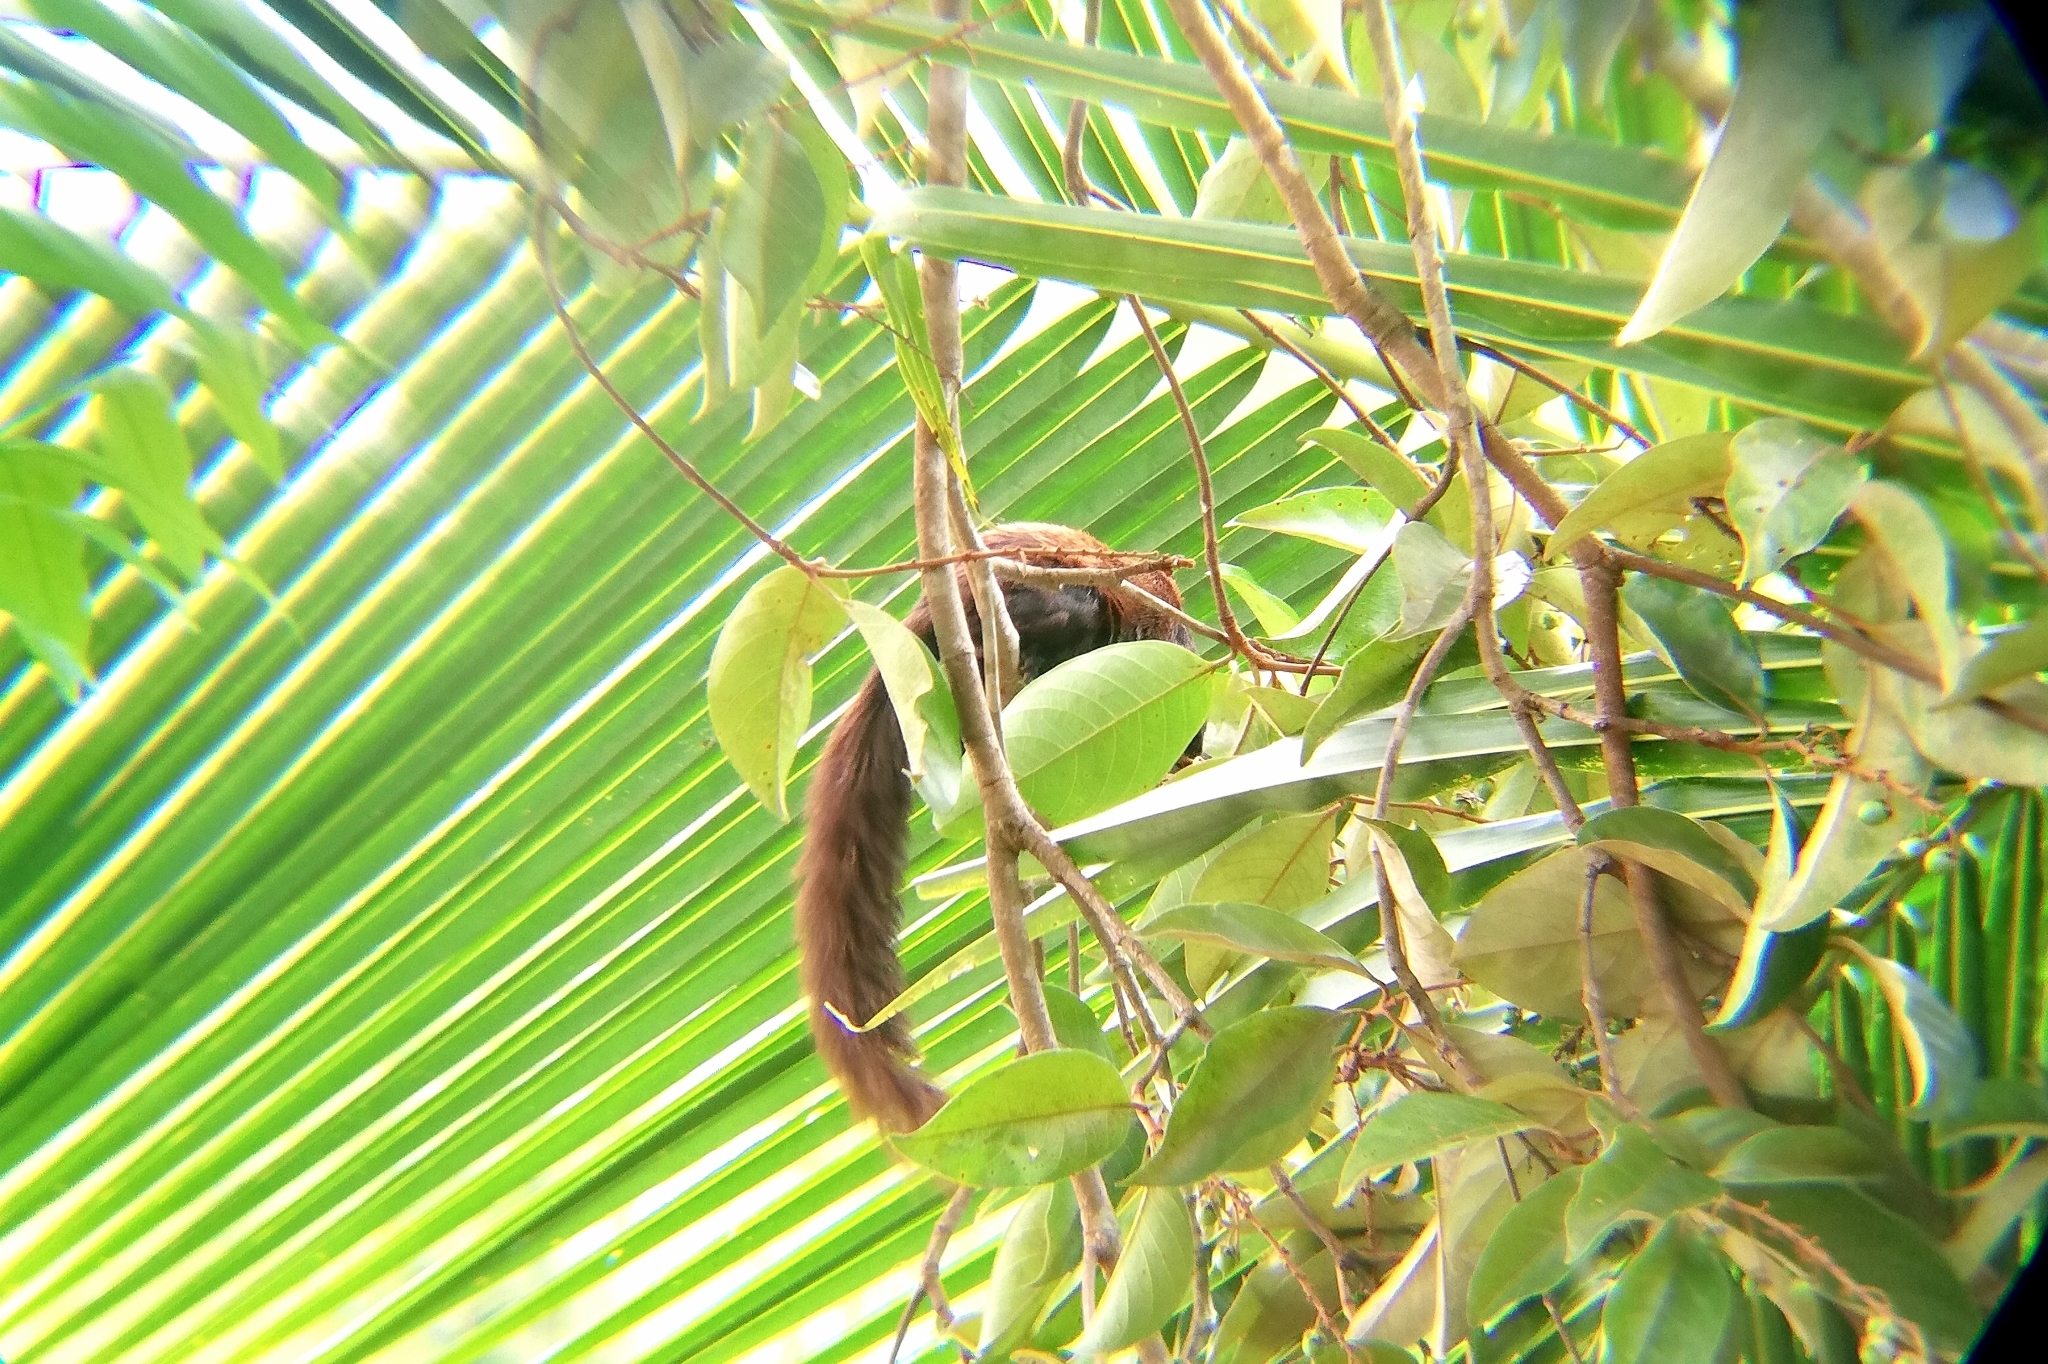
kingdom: Animalia
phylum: Chordata
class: Mammalia
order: Rodentia
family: Sciuridae
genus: Sciurus
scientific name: Sciurus variegatoides
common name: Variegated squirrel
